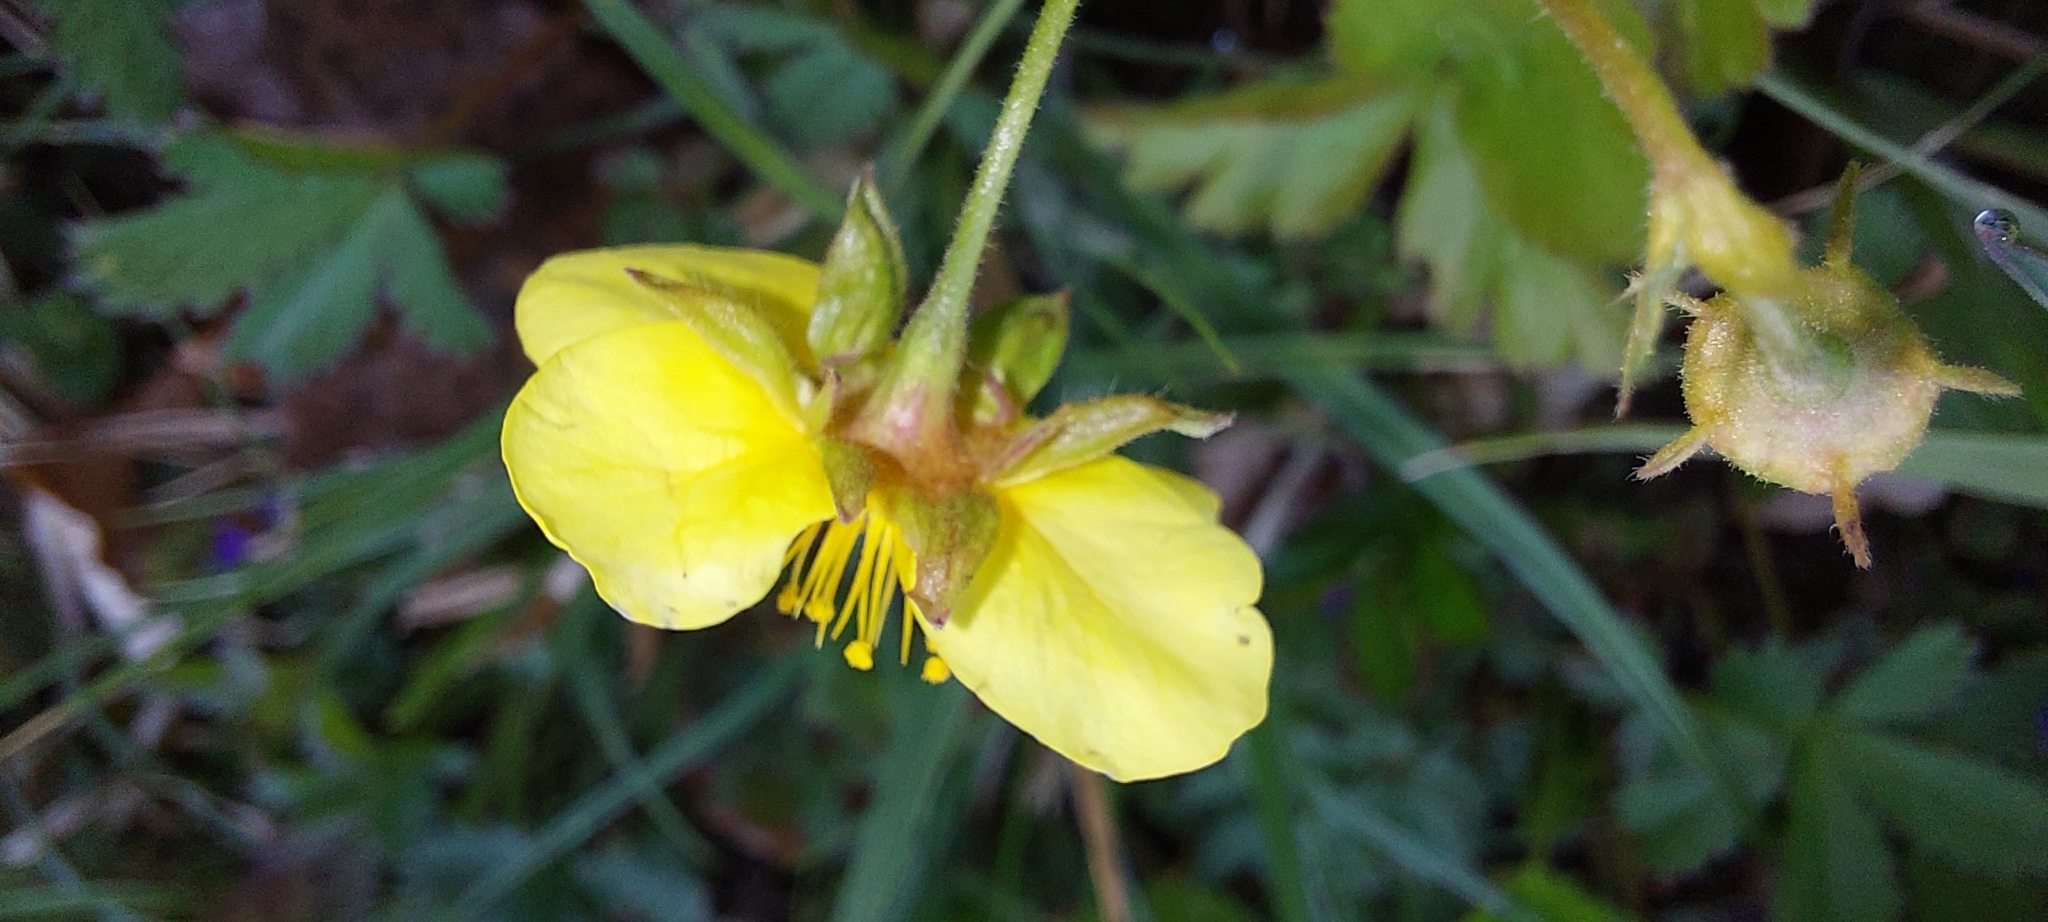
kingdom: Plantae
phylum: Tracheophyta
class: Magnoliopsida
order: Rosales
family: Rosaceae
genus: Geum
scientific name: Geum ternatum
